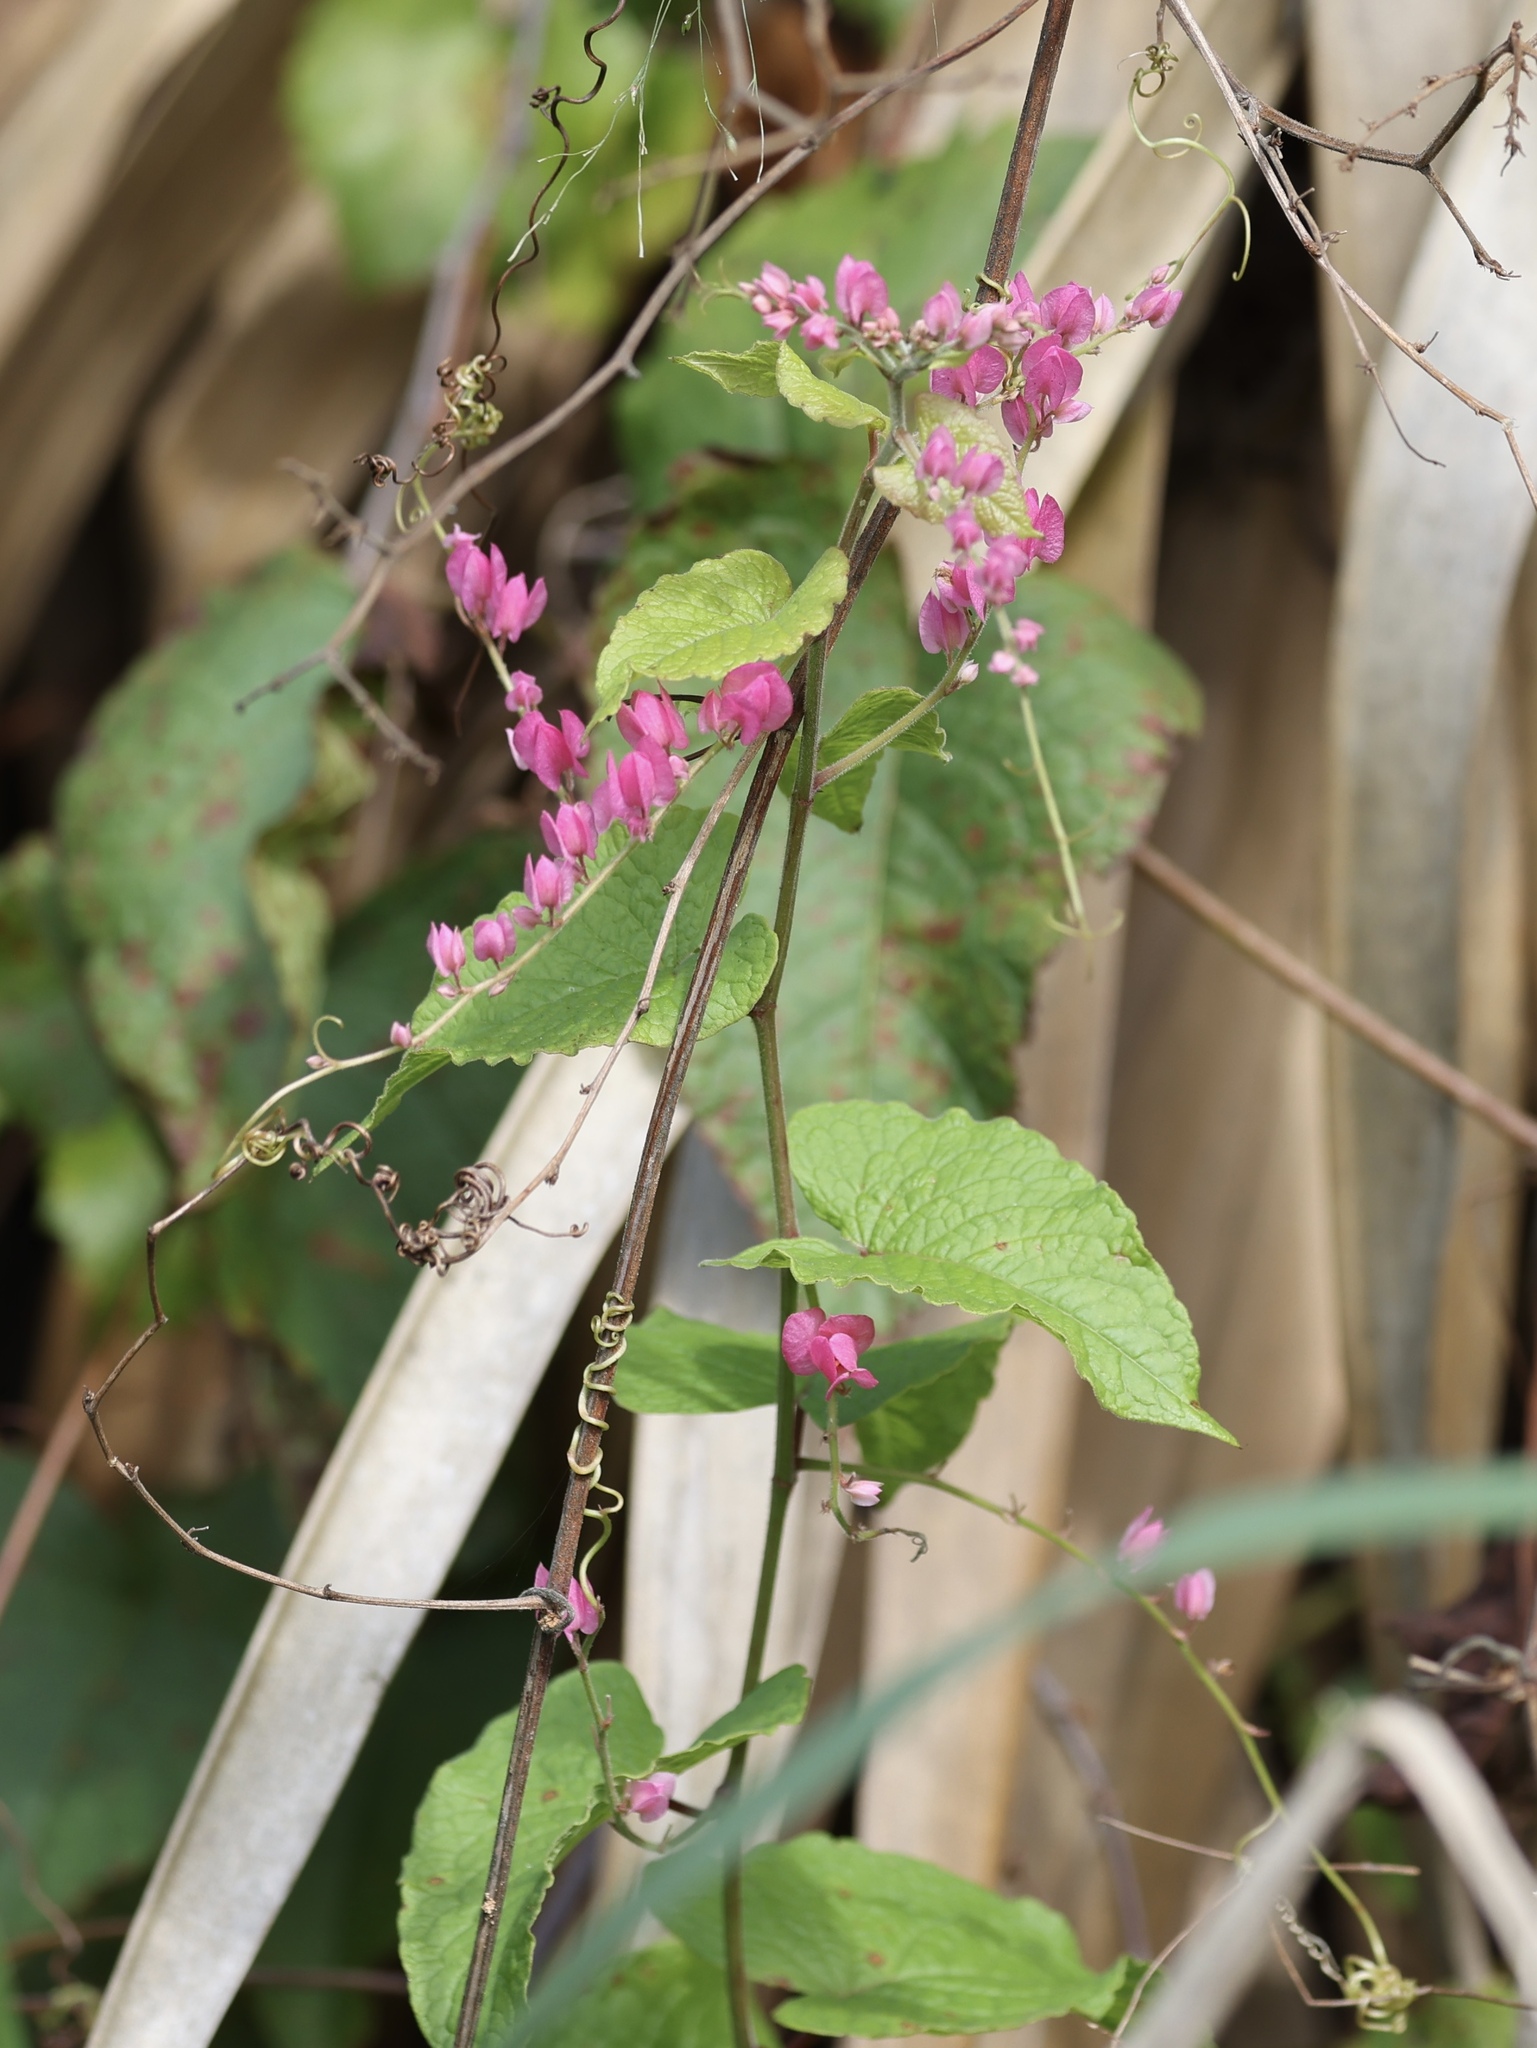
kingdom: Plantae
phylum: Tracheophyta
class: Magnoliopsida
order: Caryophyllales
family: Polygonaceae
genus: Antigonon
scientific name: Antigonon leptopus
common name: Coral vine
